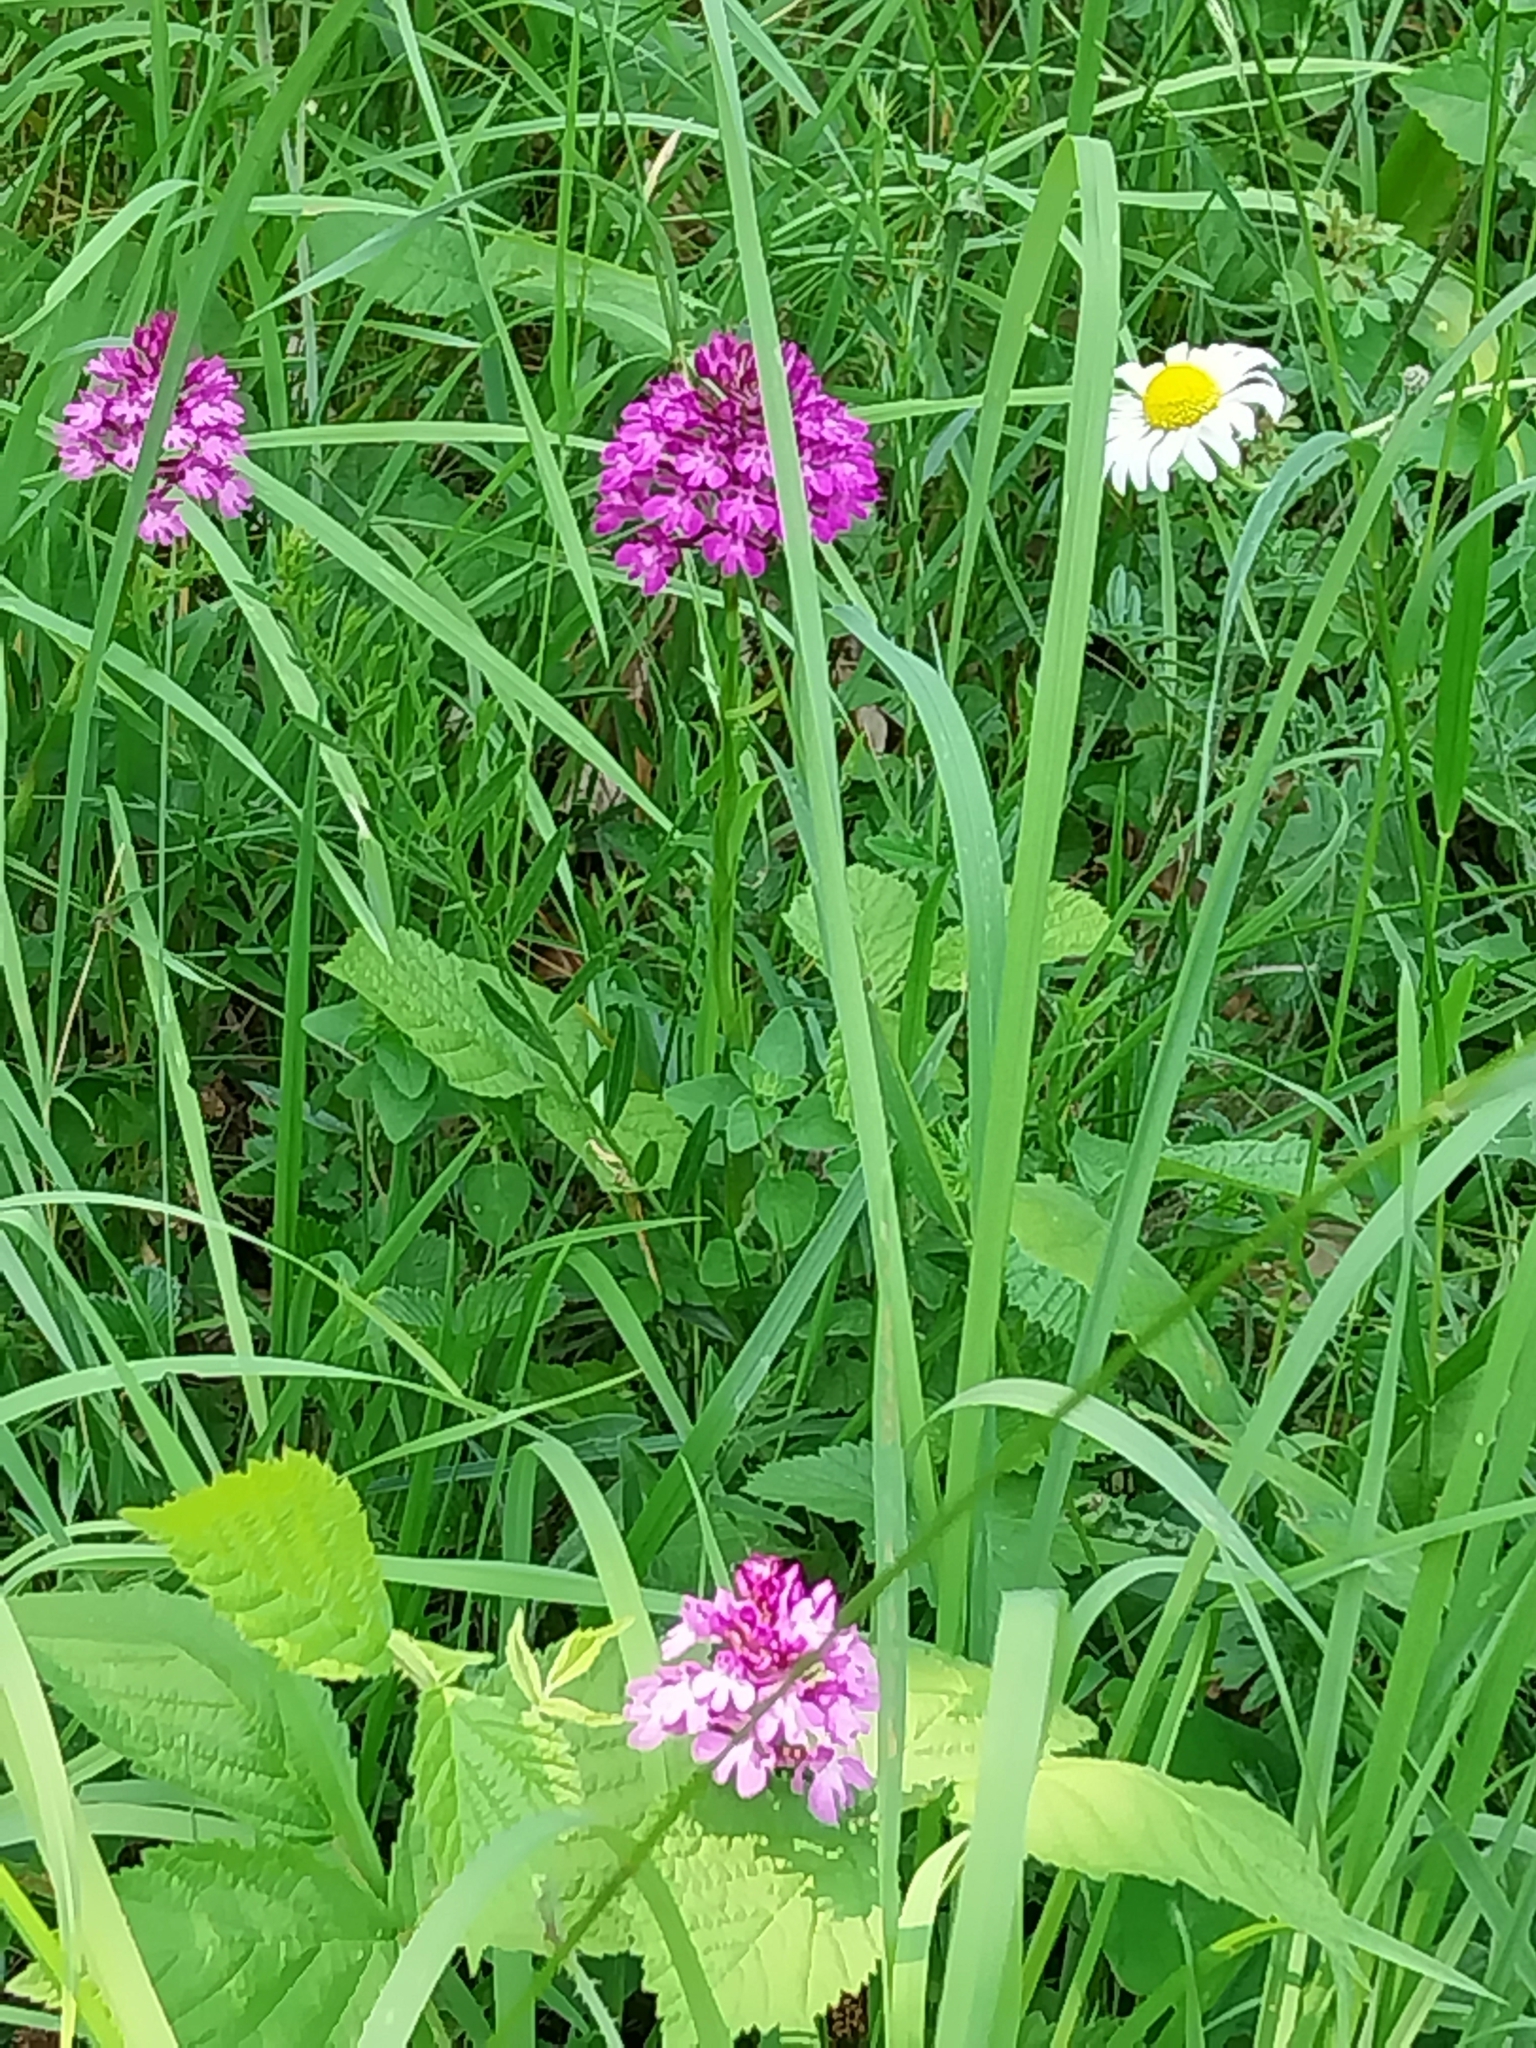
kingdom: Plantae
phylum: Tracheophyta
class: Liliopsida
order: Asparagales
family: Orchidaceae
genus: Anacamptis
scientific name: Anacamptis pyramidalis
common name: Pyramidal orchid
